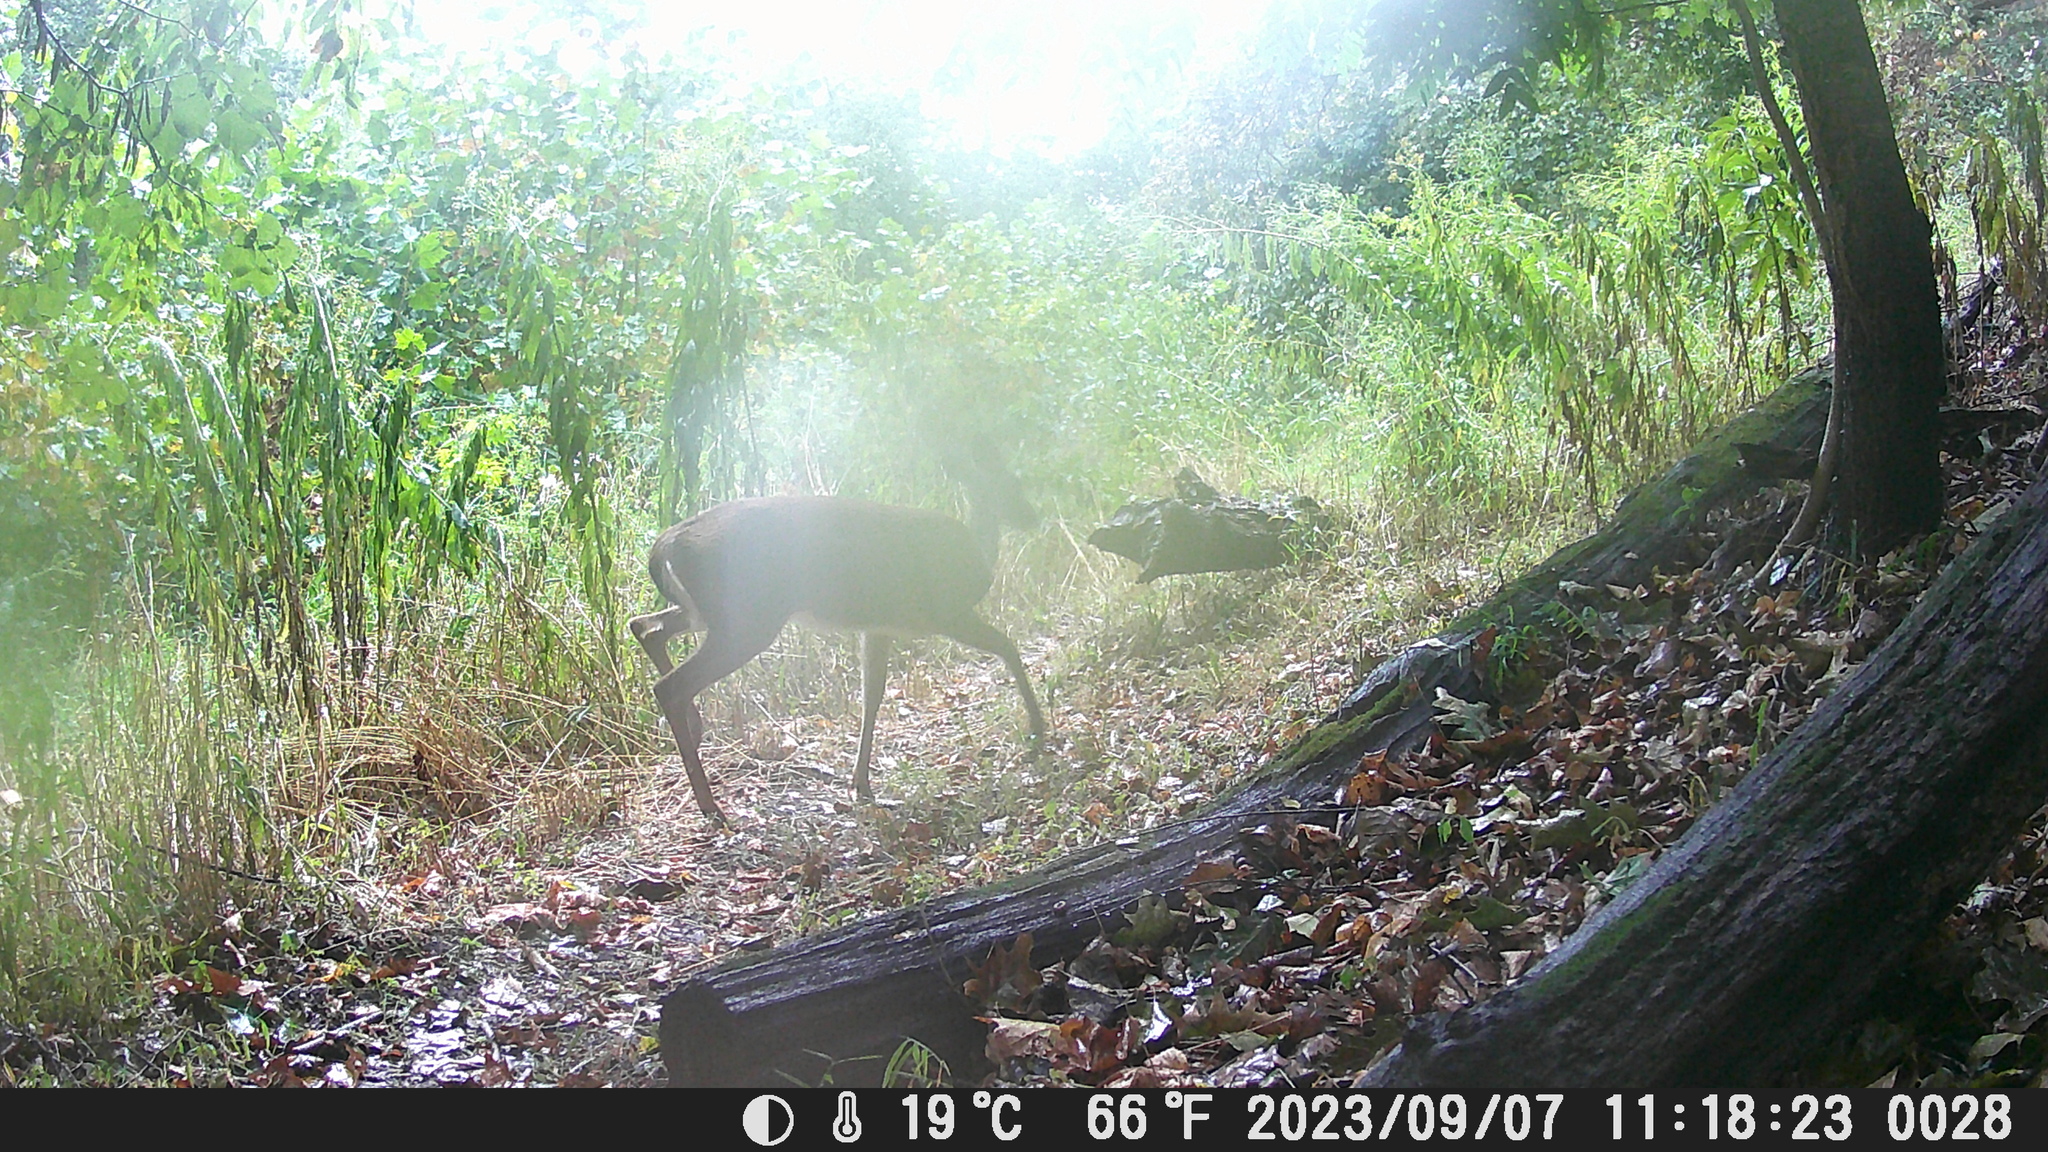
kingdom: Animalia
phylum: Chordata
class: Mammalia
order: Artiodactyla
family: Cervidae
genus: Odocoileus
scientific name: Odocoileus virginianus
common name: White-tailed deer
